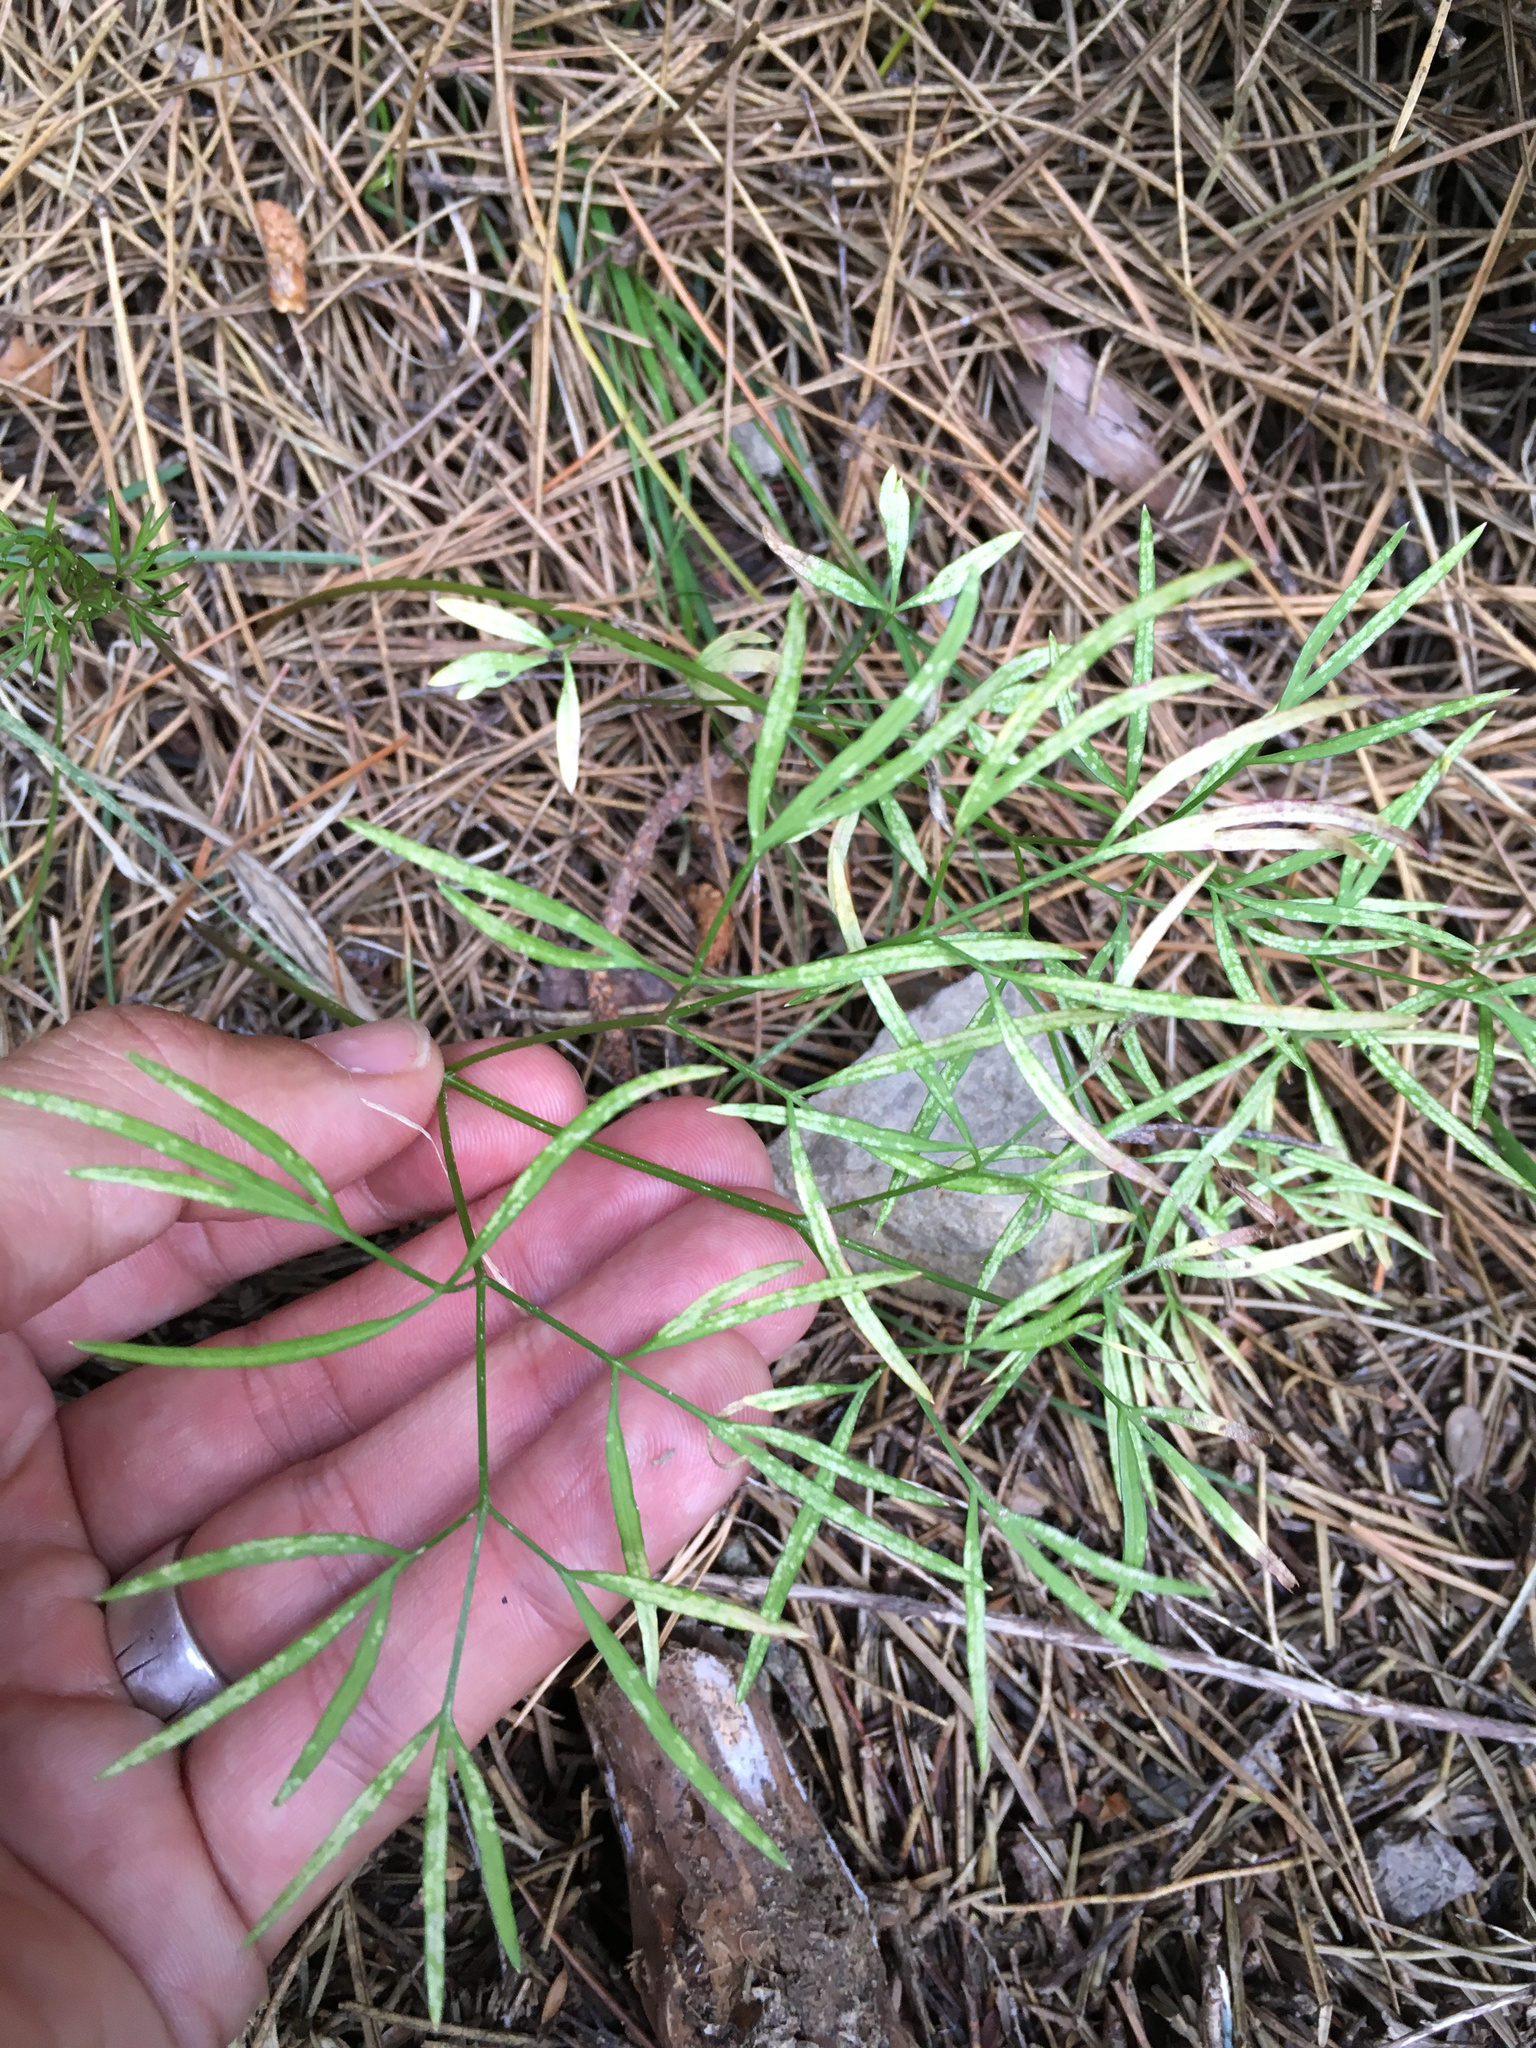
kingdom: Plantae
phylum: Tracheophyta
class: Magnoliopsida
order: Apiales
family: Apiaceae
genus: Anisotome
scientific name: Anisotome filifolia
